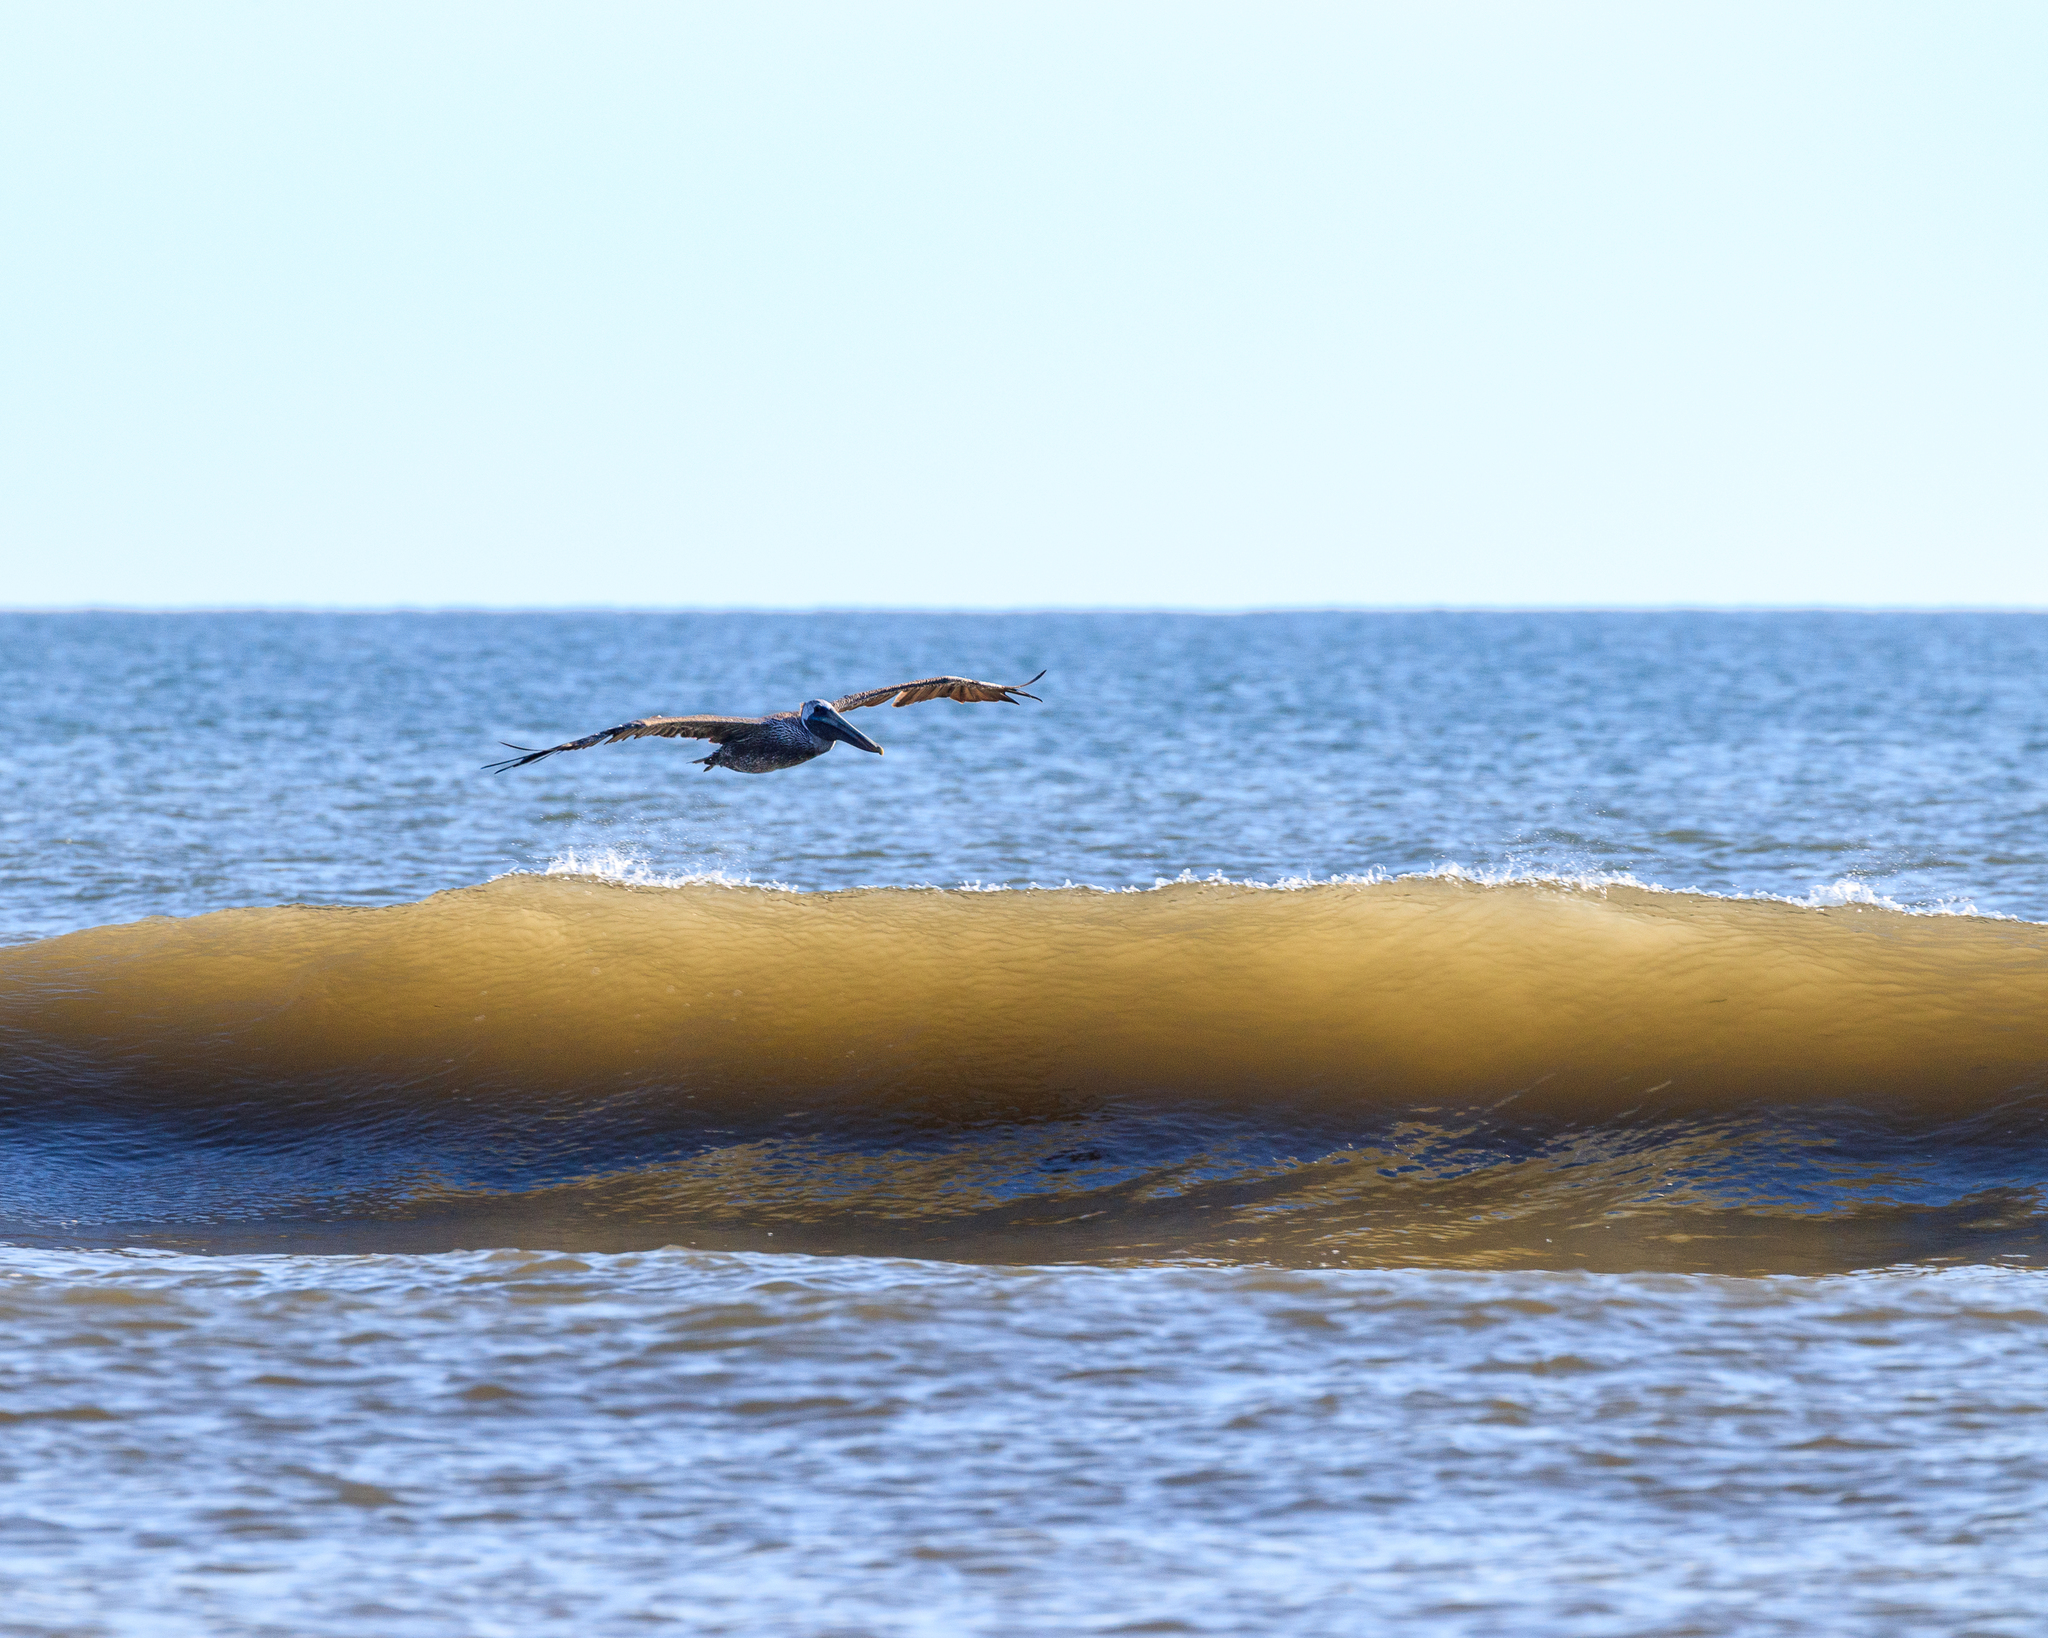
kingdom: Animalia
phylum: Chordata
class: Aves
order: Pelecaniformes
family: Pelecanidae
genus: Pelecanus
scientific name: Pelecanus occidentalis
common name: Brown pelican
